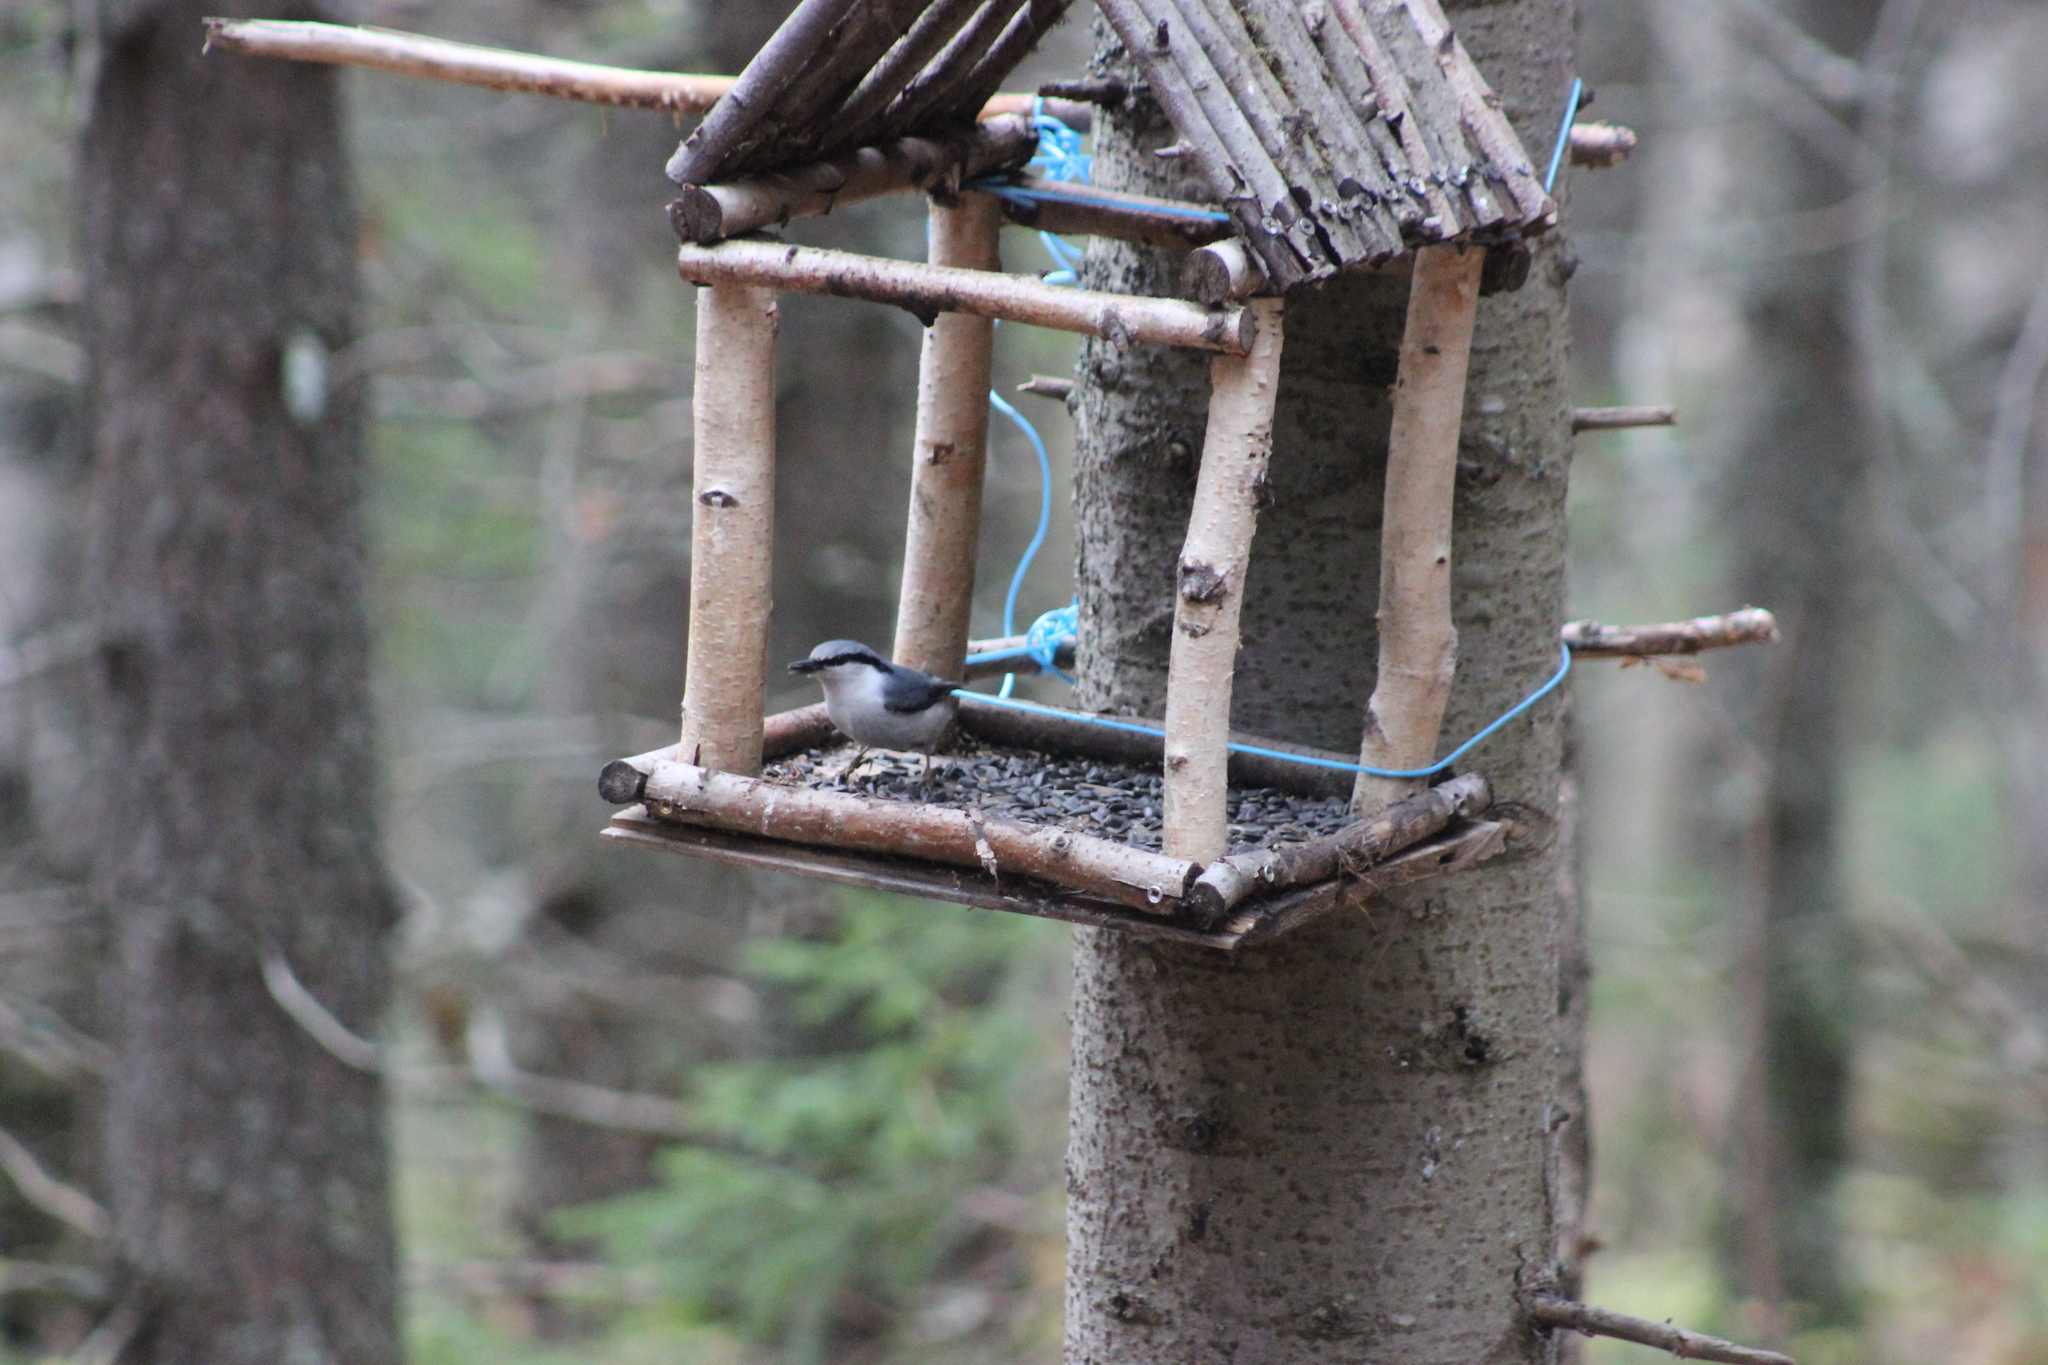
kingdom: Animalia
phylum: Chordata
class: Aves
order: Passeriformes
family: Sittidae
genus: Sitta
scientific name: Sitta europaea
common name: Eurasian nuthatch
